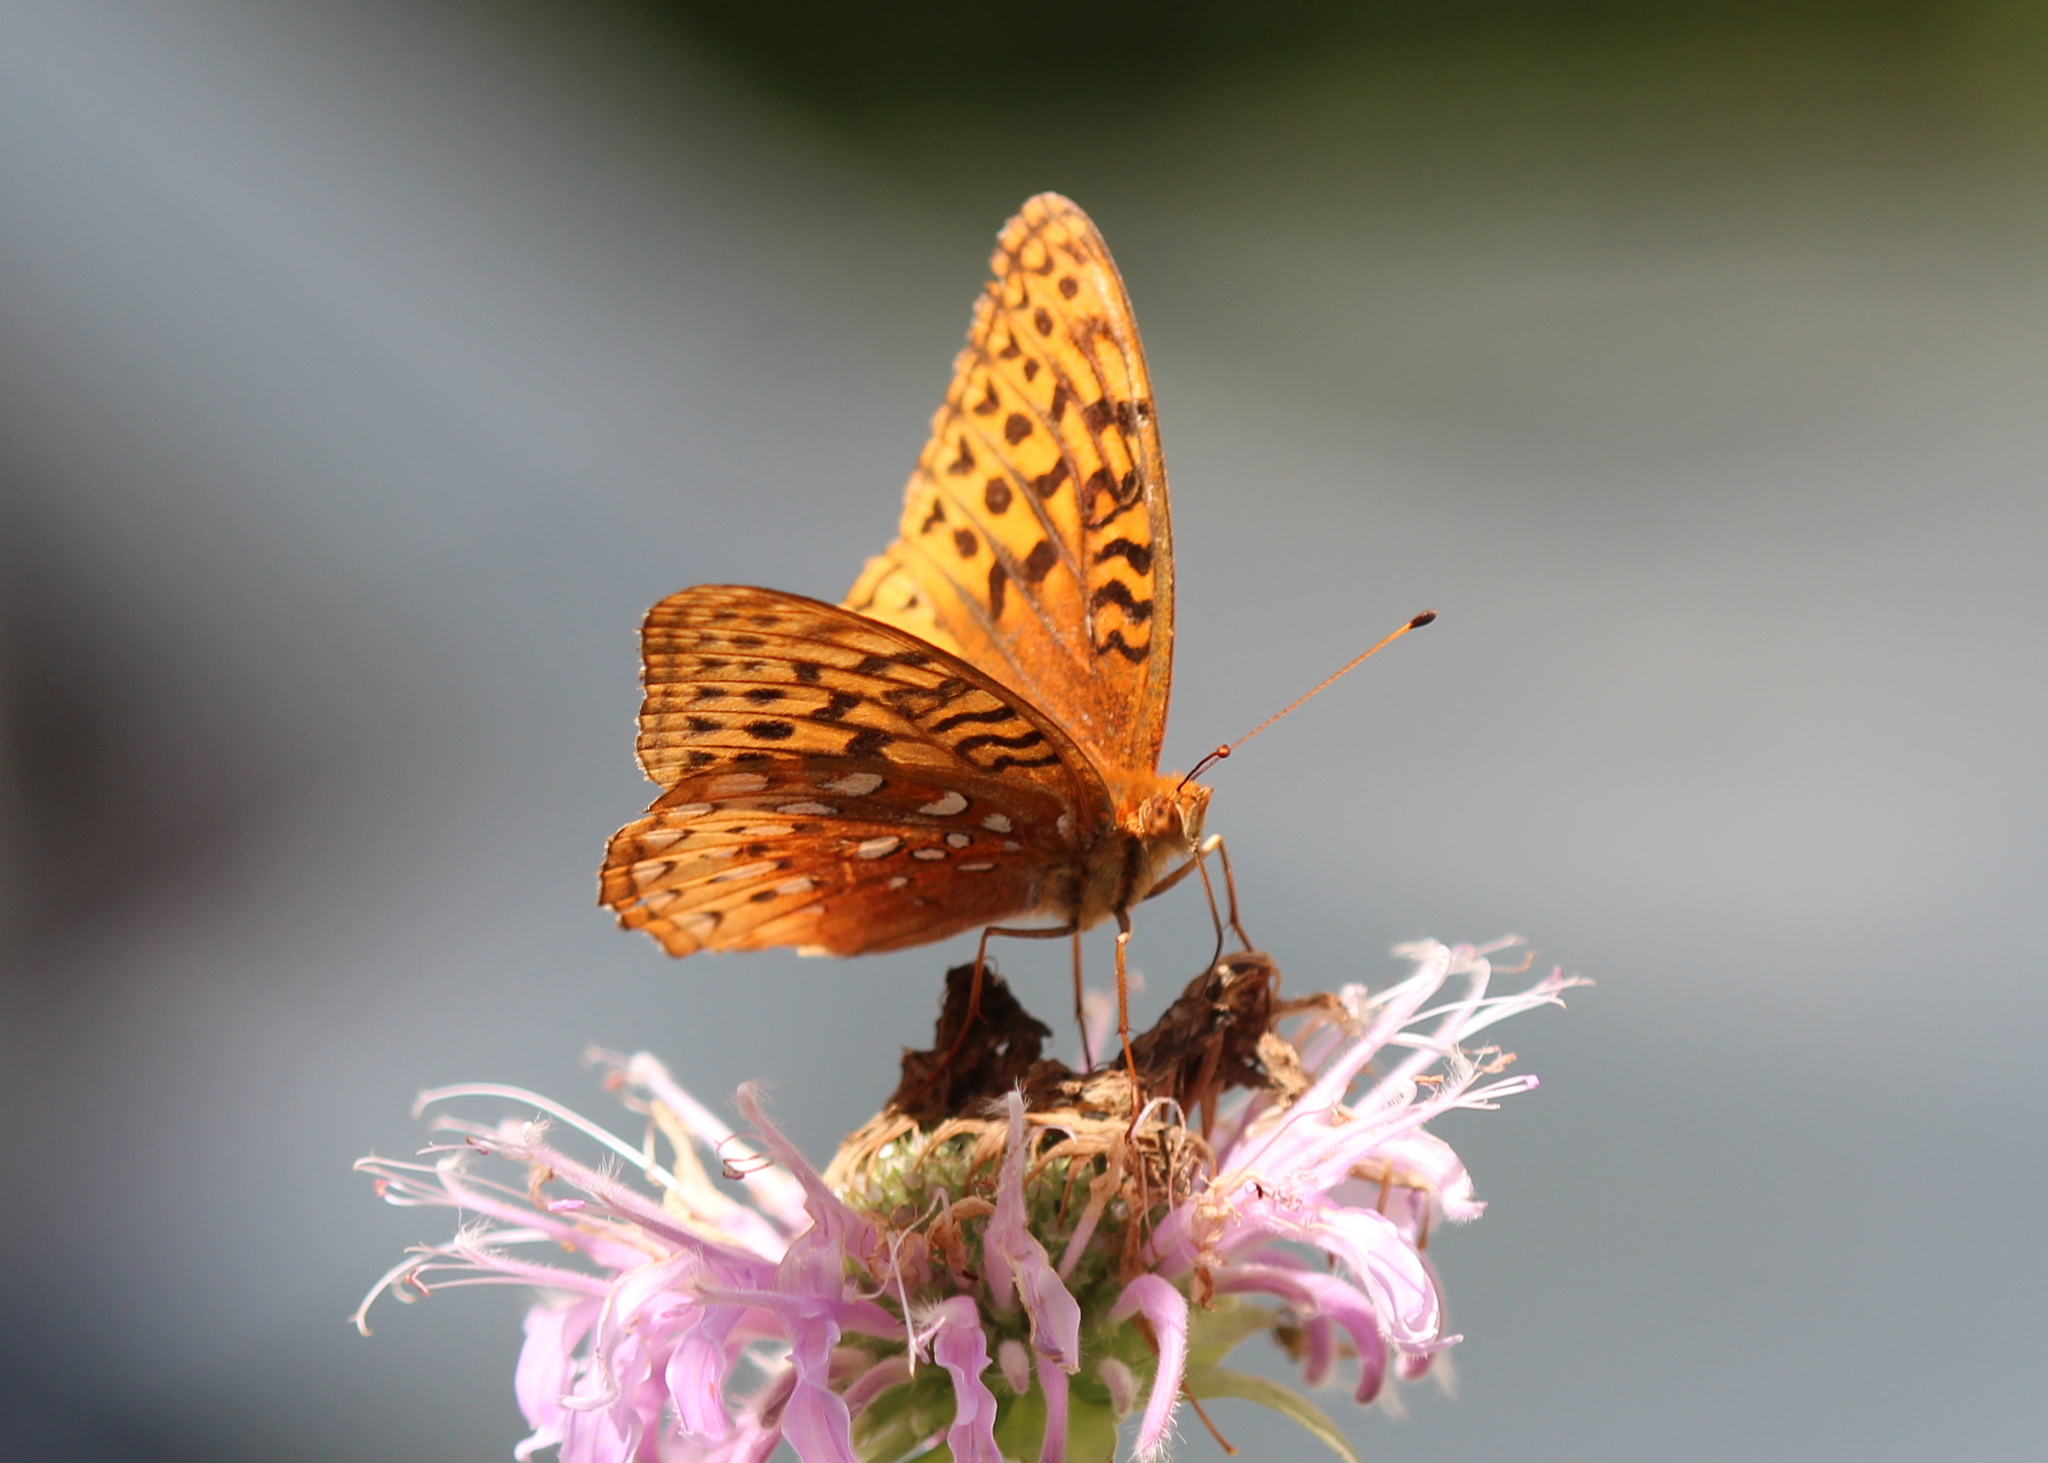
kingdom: Animalia
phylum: Arthropoda
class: Insecta
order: Lepidoptera
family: Nymphalidae
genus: Speyeria
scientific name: Speyeria cybele
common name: Great spangled fritillary
